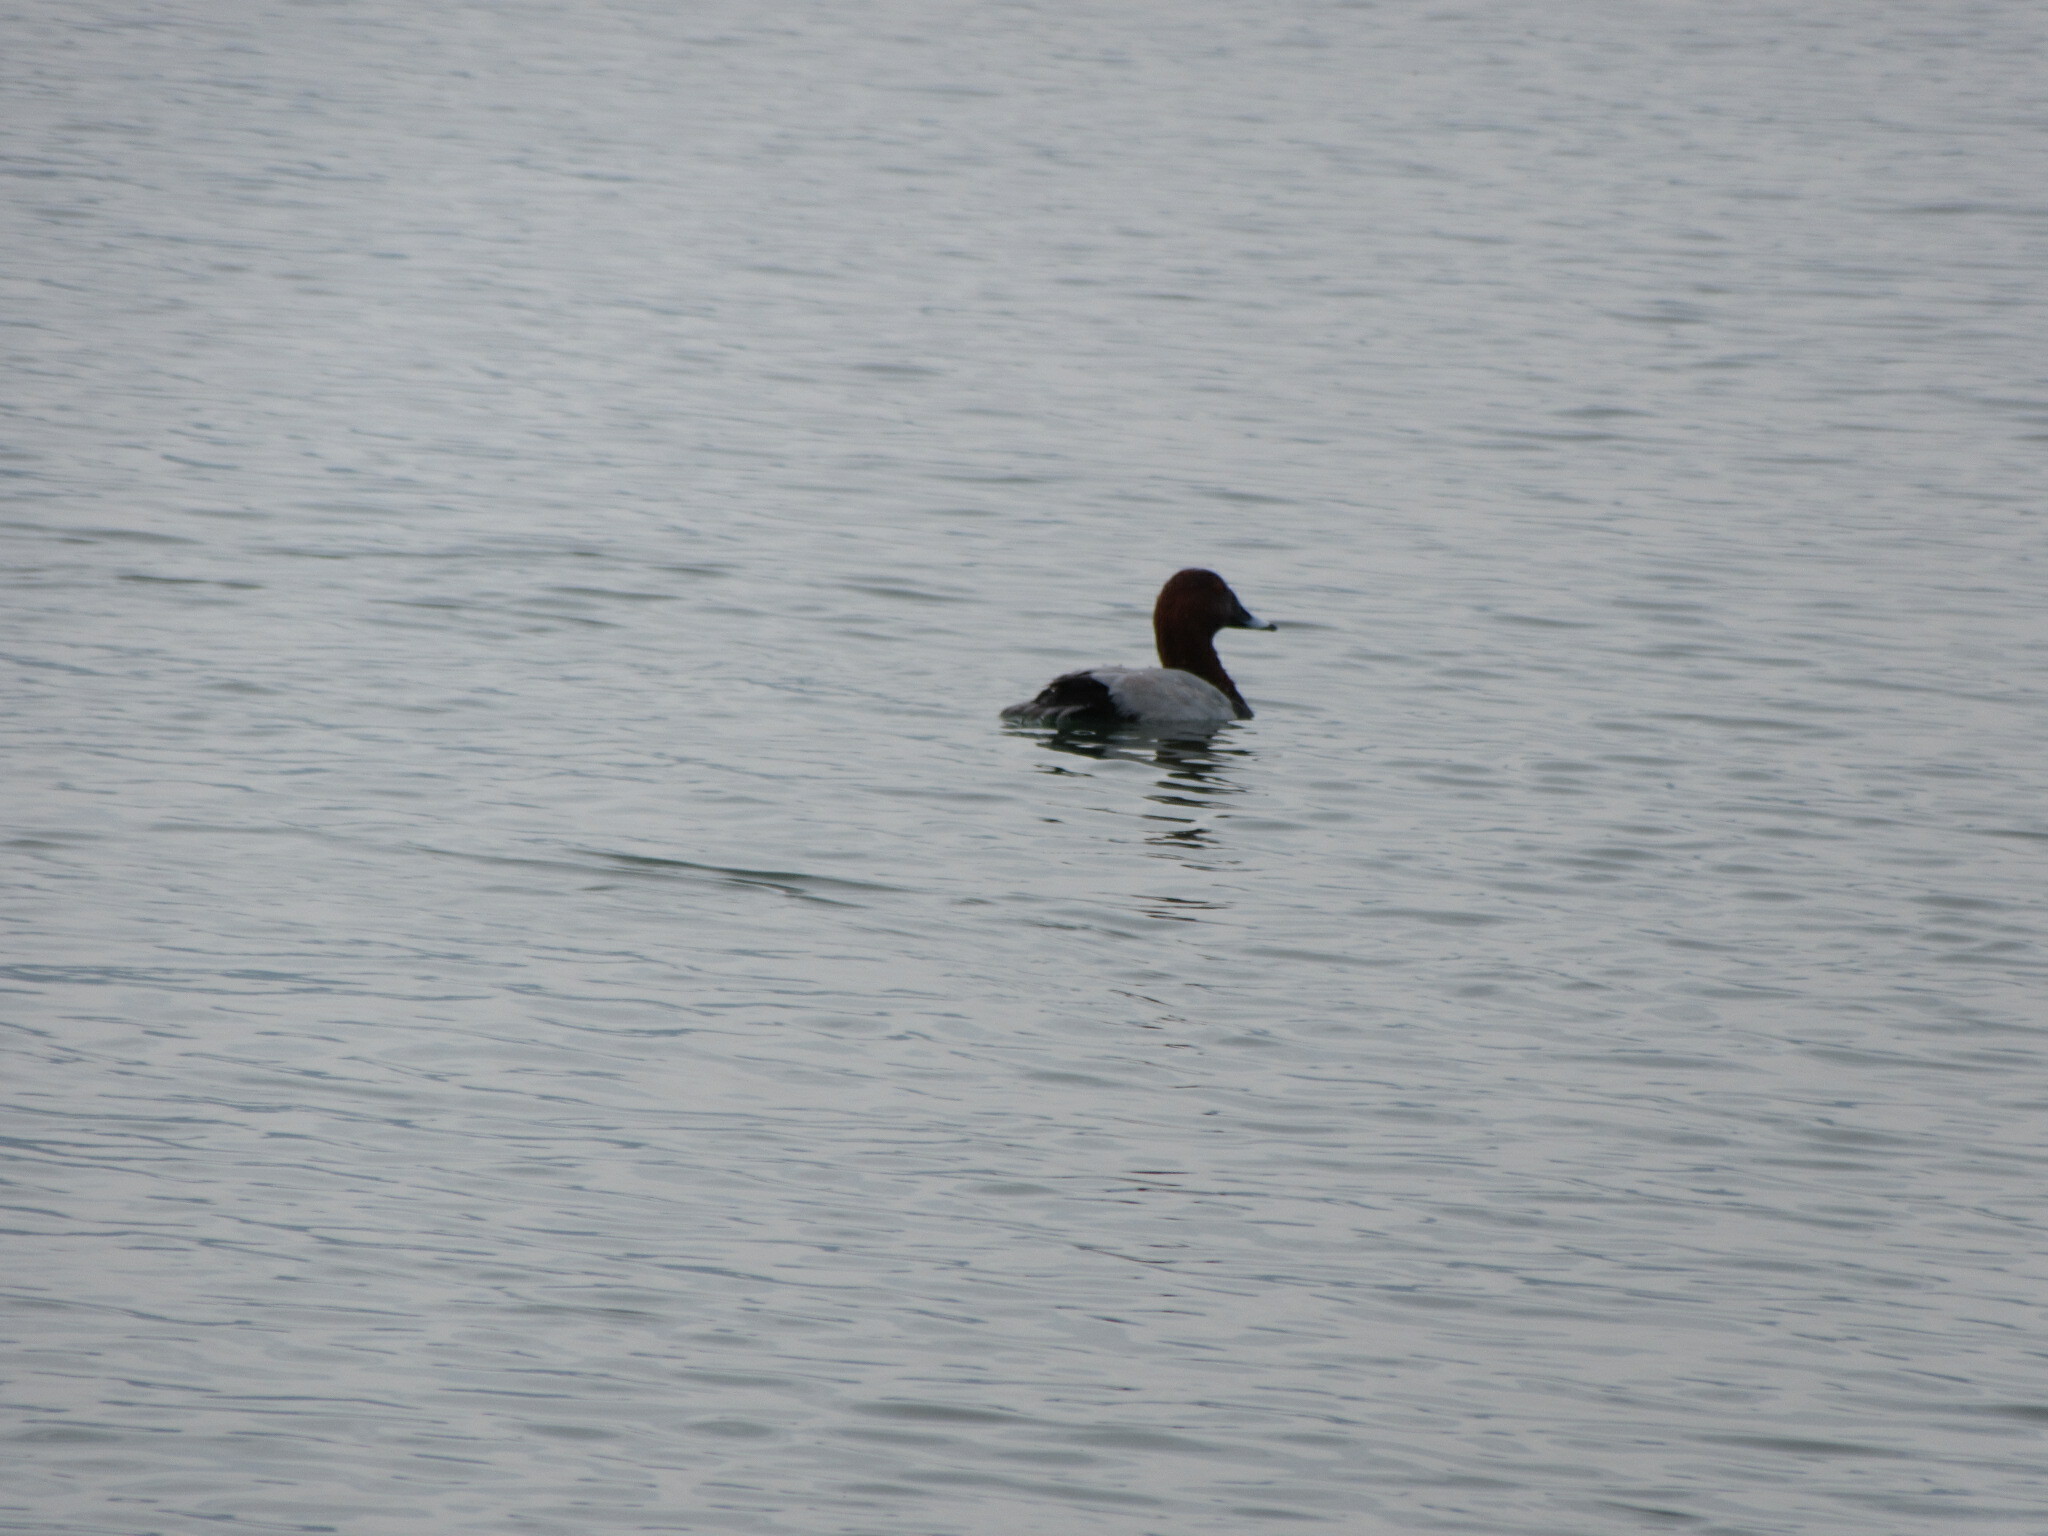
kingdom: Animalia
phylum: Chordata
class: Aves
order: Anseriformes
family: Anatidae
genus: Aythya
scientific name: Aythya ferina
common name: Common pochard
